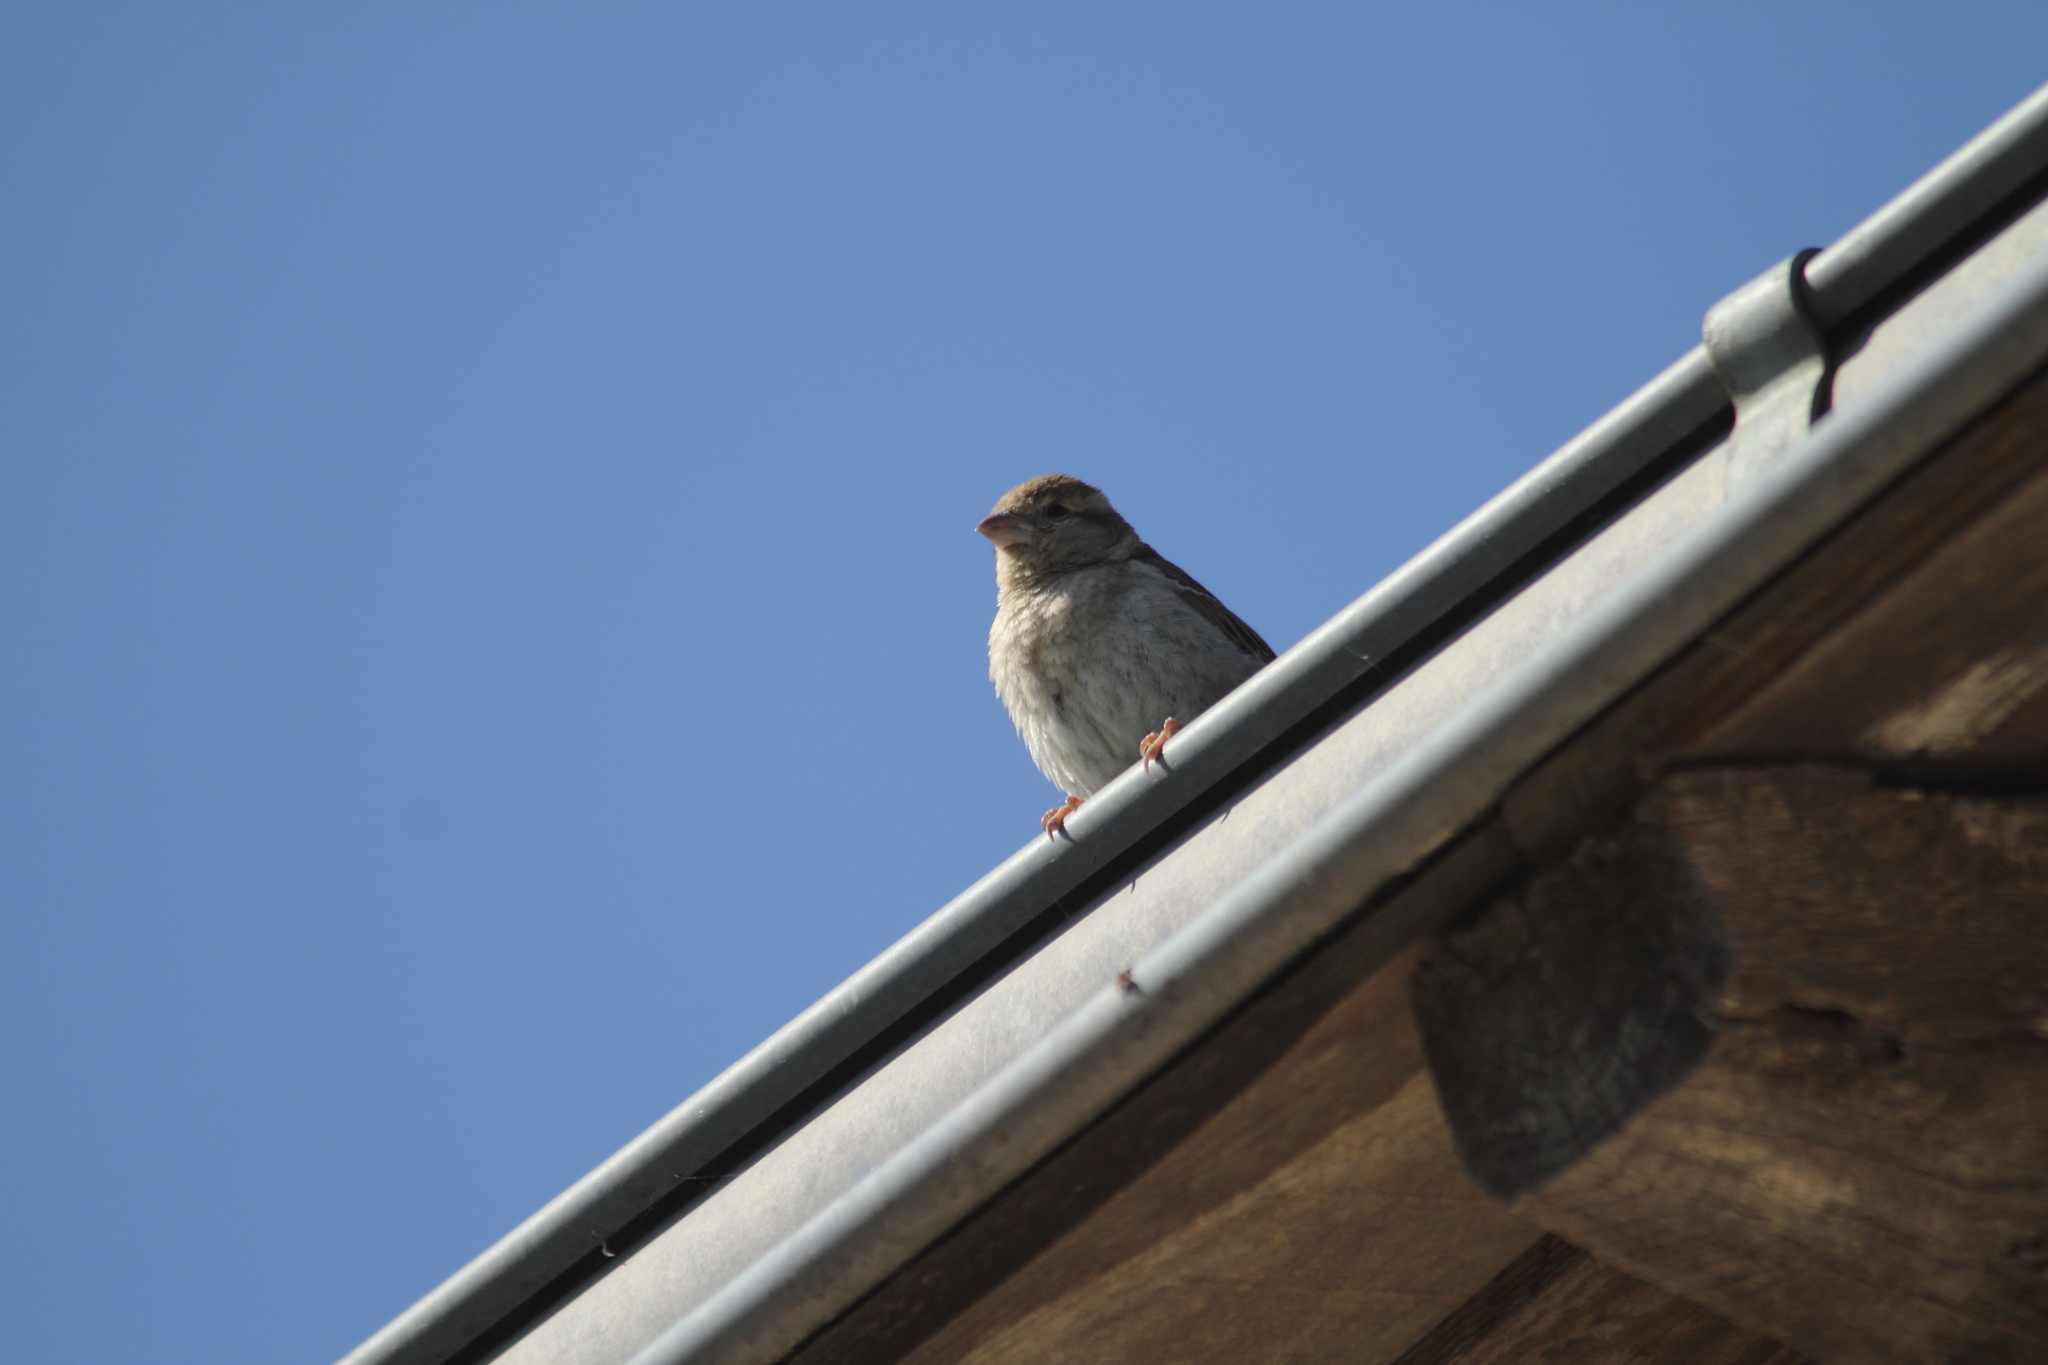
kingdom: Animalia
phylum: Chordata
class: Aves
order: Passeriformes
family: Passeridae
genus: Passer
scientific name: Passer domesticus
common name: House sparrow
